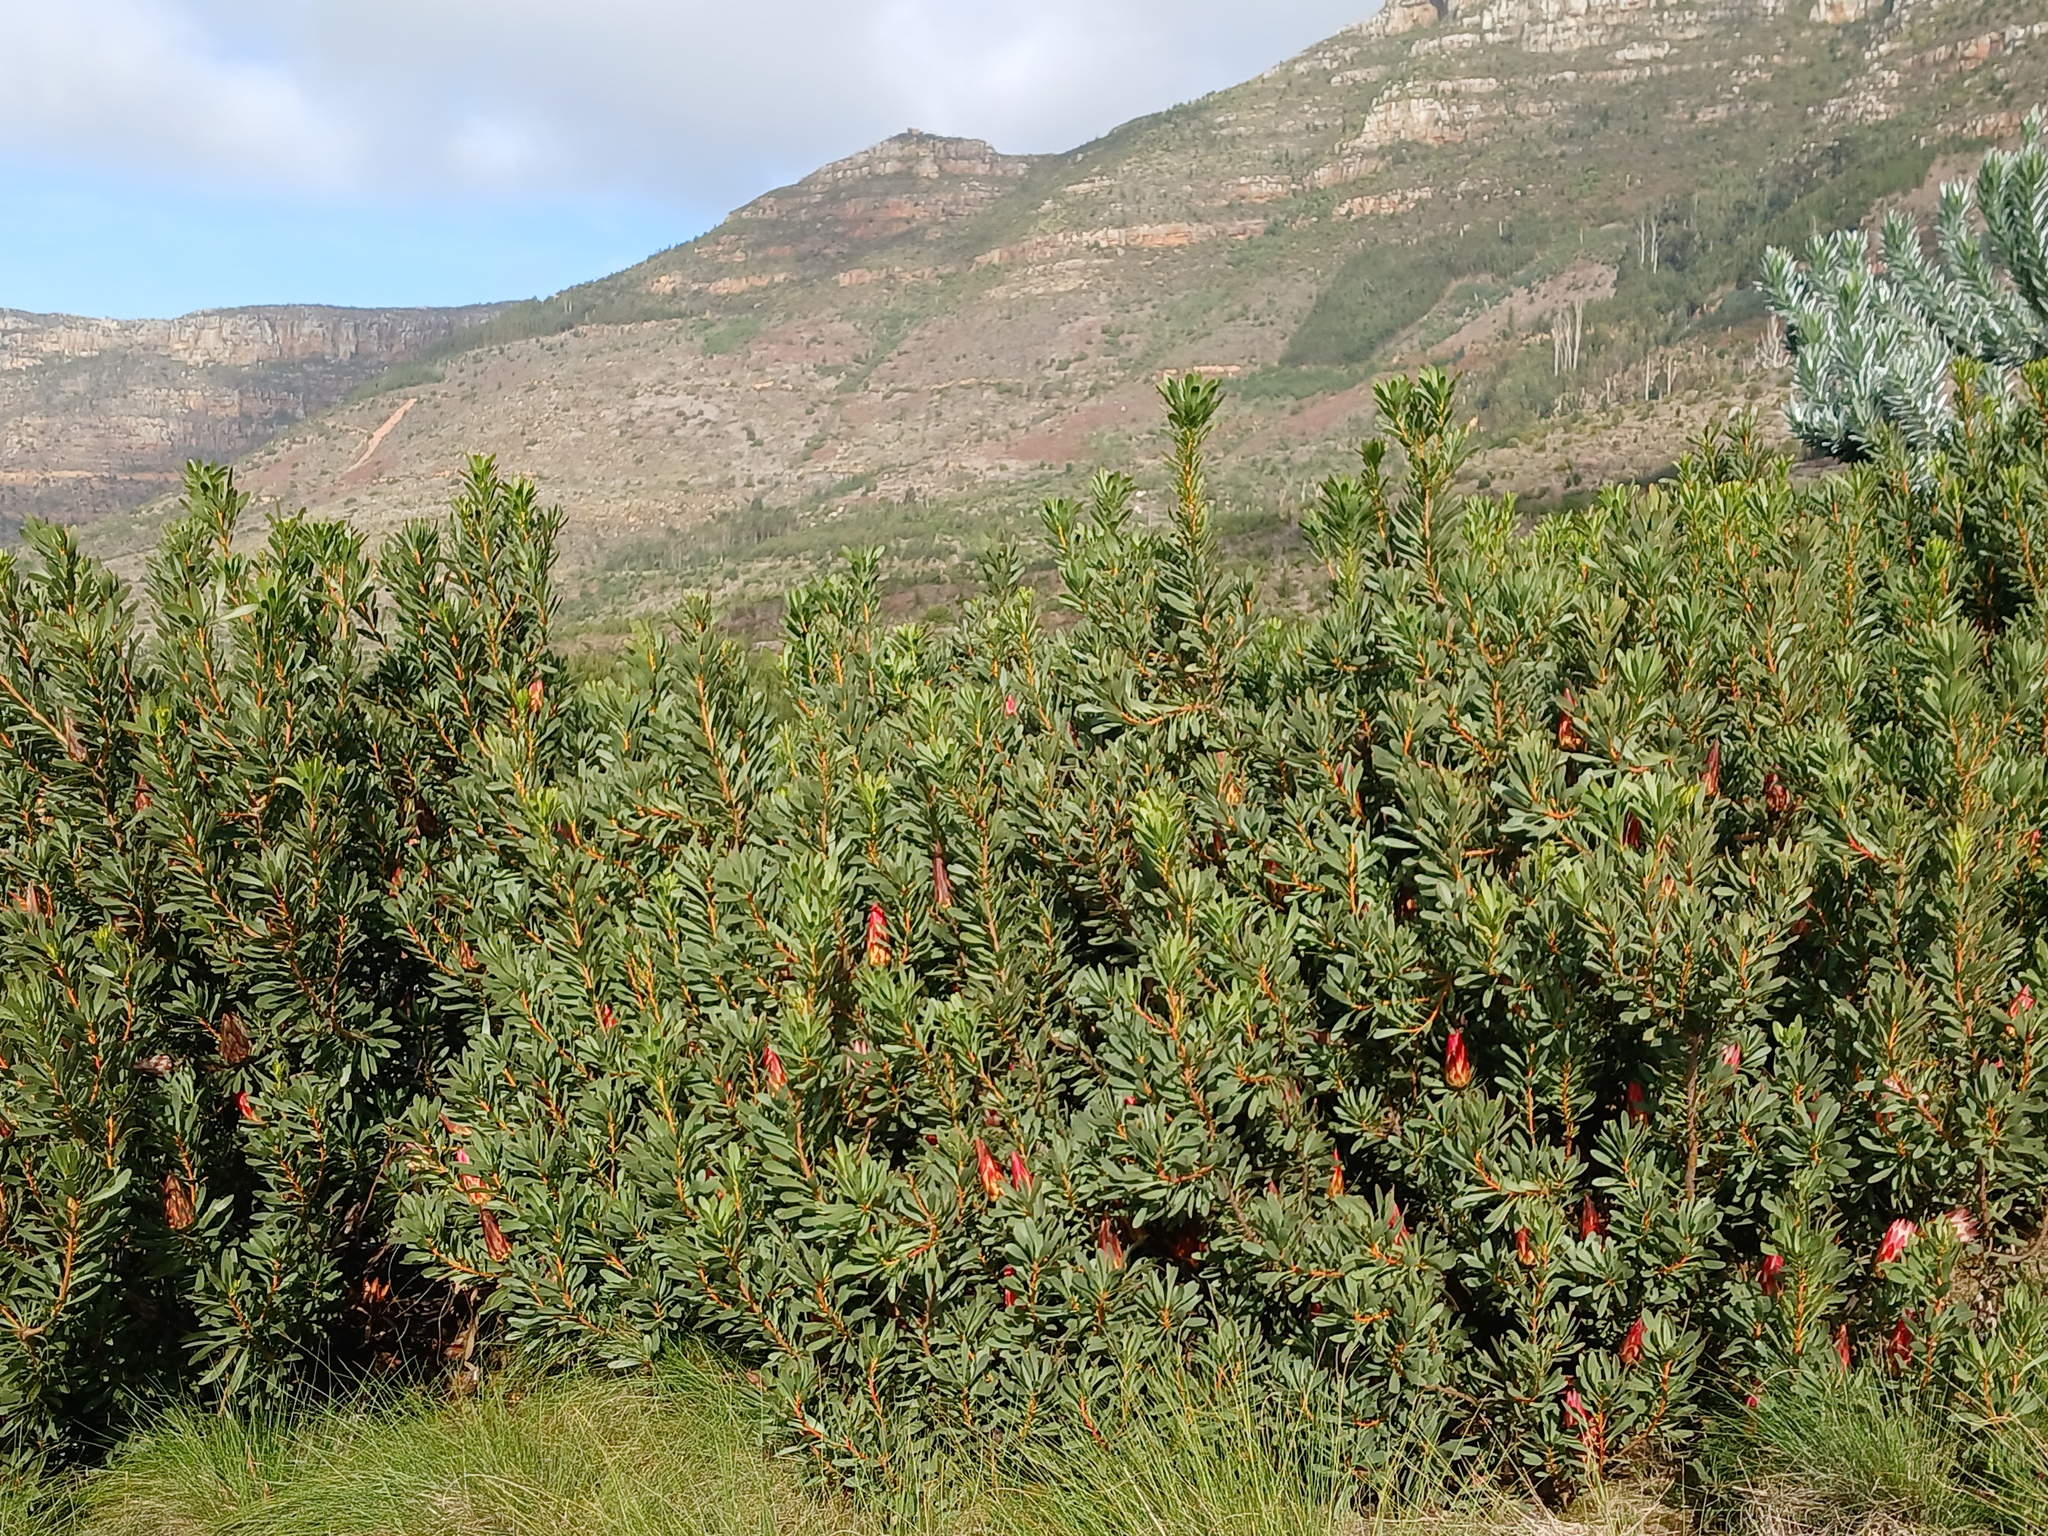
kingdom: Plantae
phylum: Tracheophyta
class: Magnoliopsida
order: Proteales
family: Proteaceae
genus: Protea
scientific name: Protea repens
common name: Sugarbush
